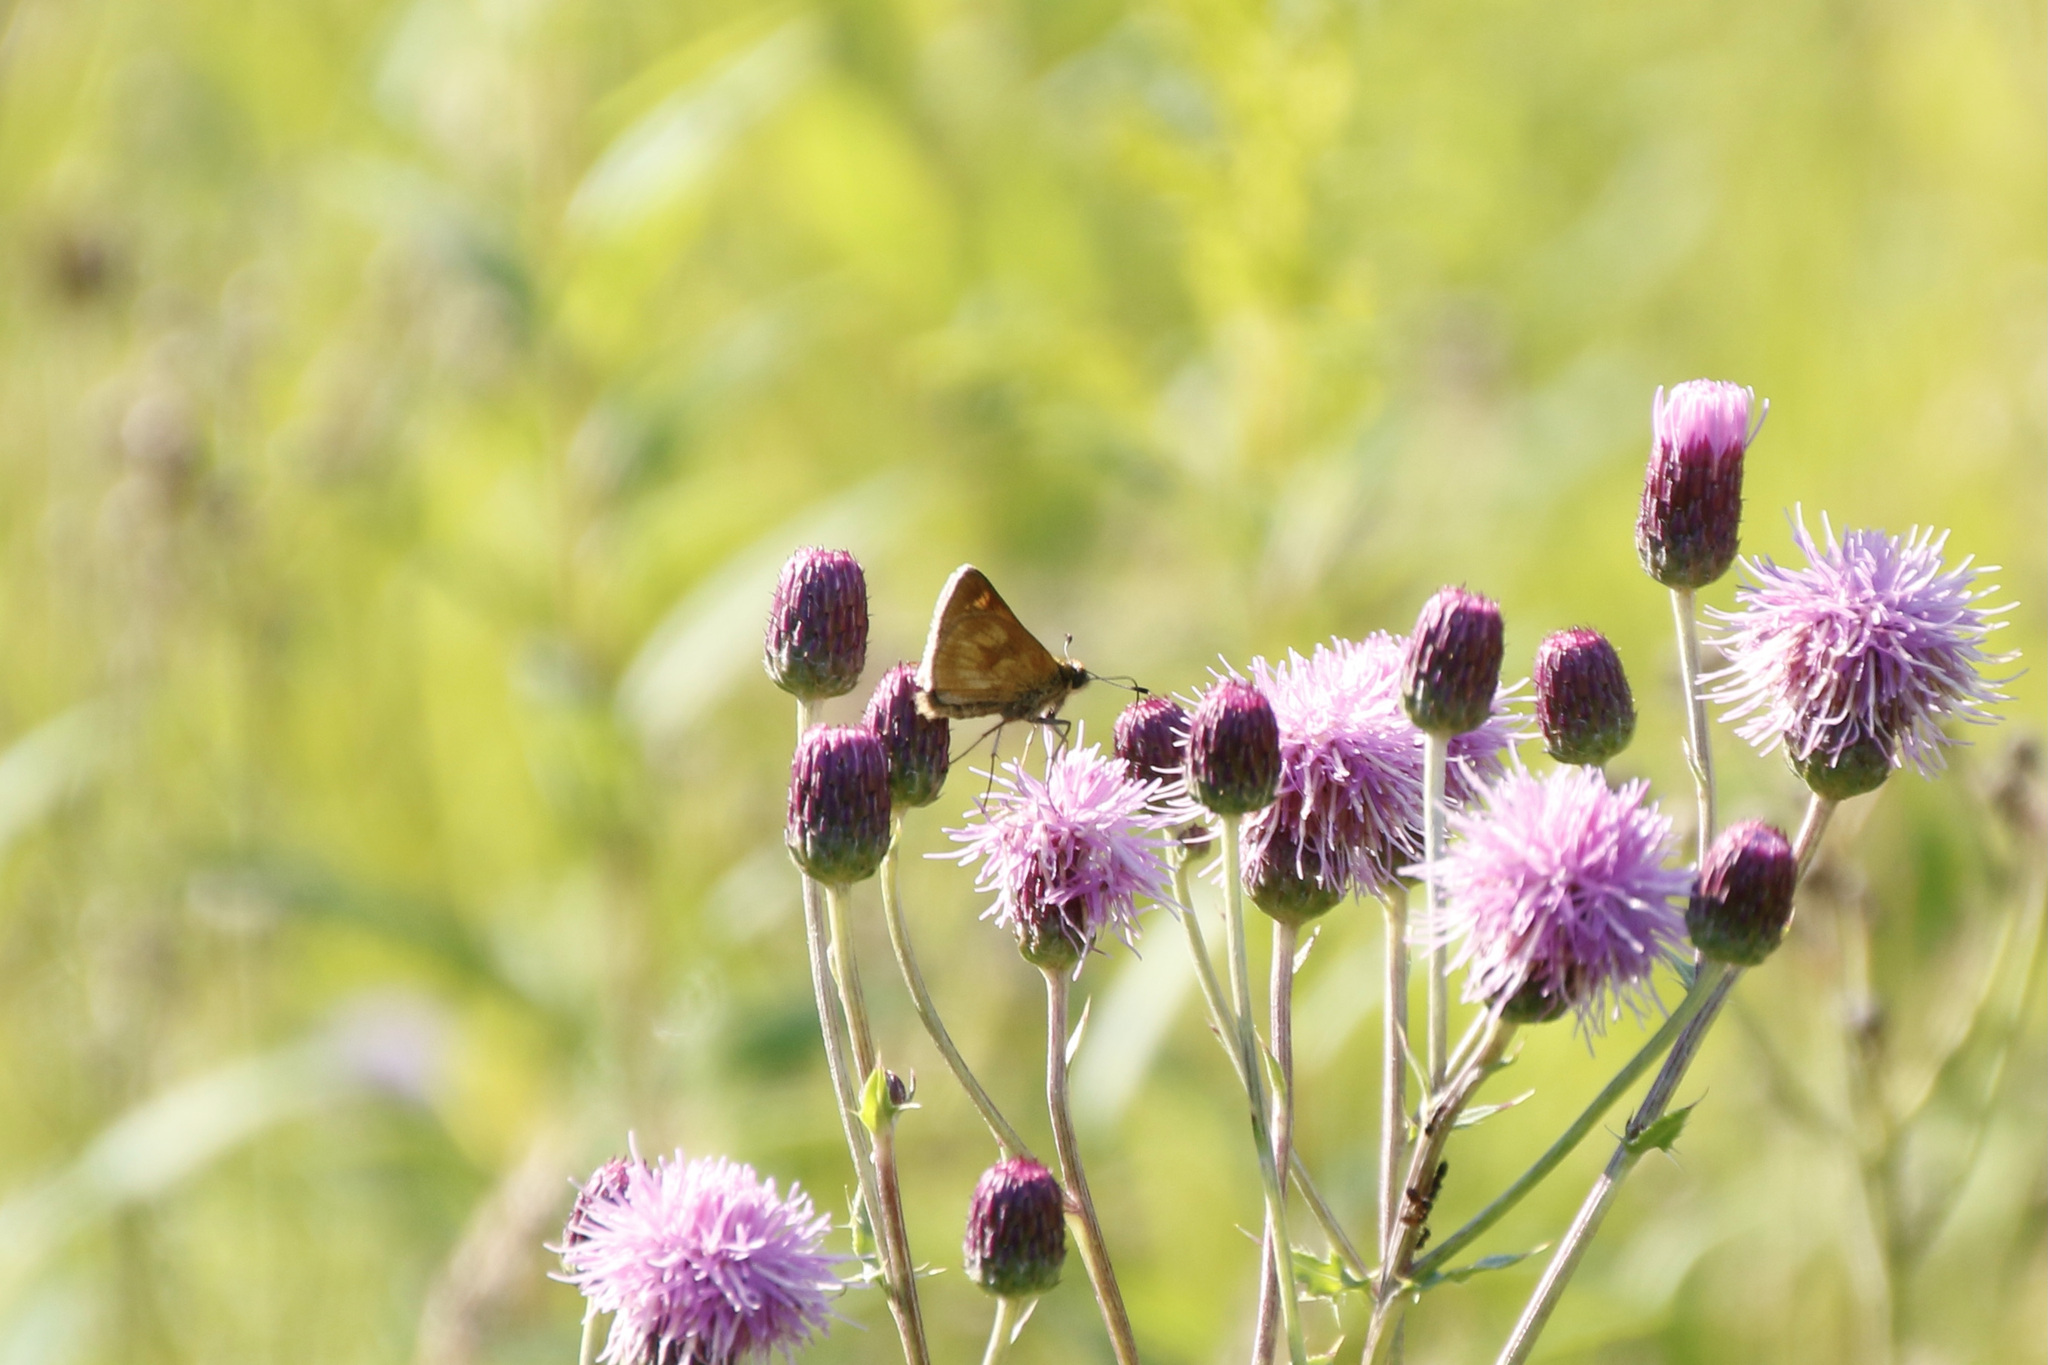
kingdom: Animalia
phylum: Arthropoda
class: Insecta
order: Lepidoptera
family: Hesperiidae
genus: Polites
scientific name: Polites mystic
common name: Long dash
